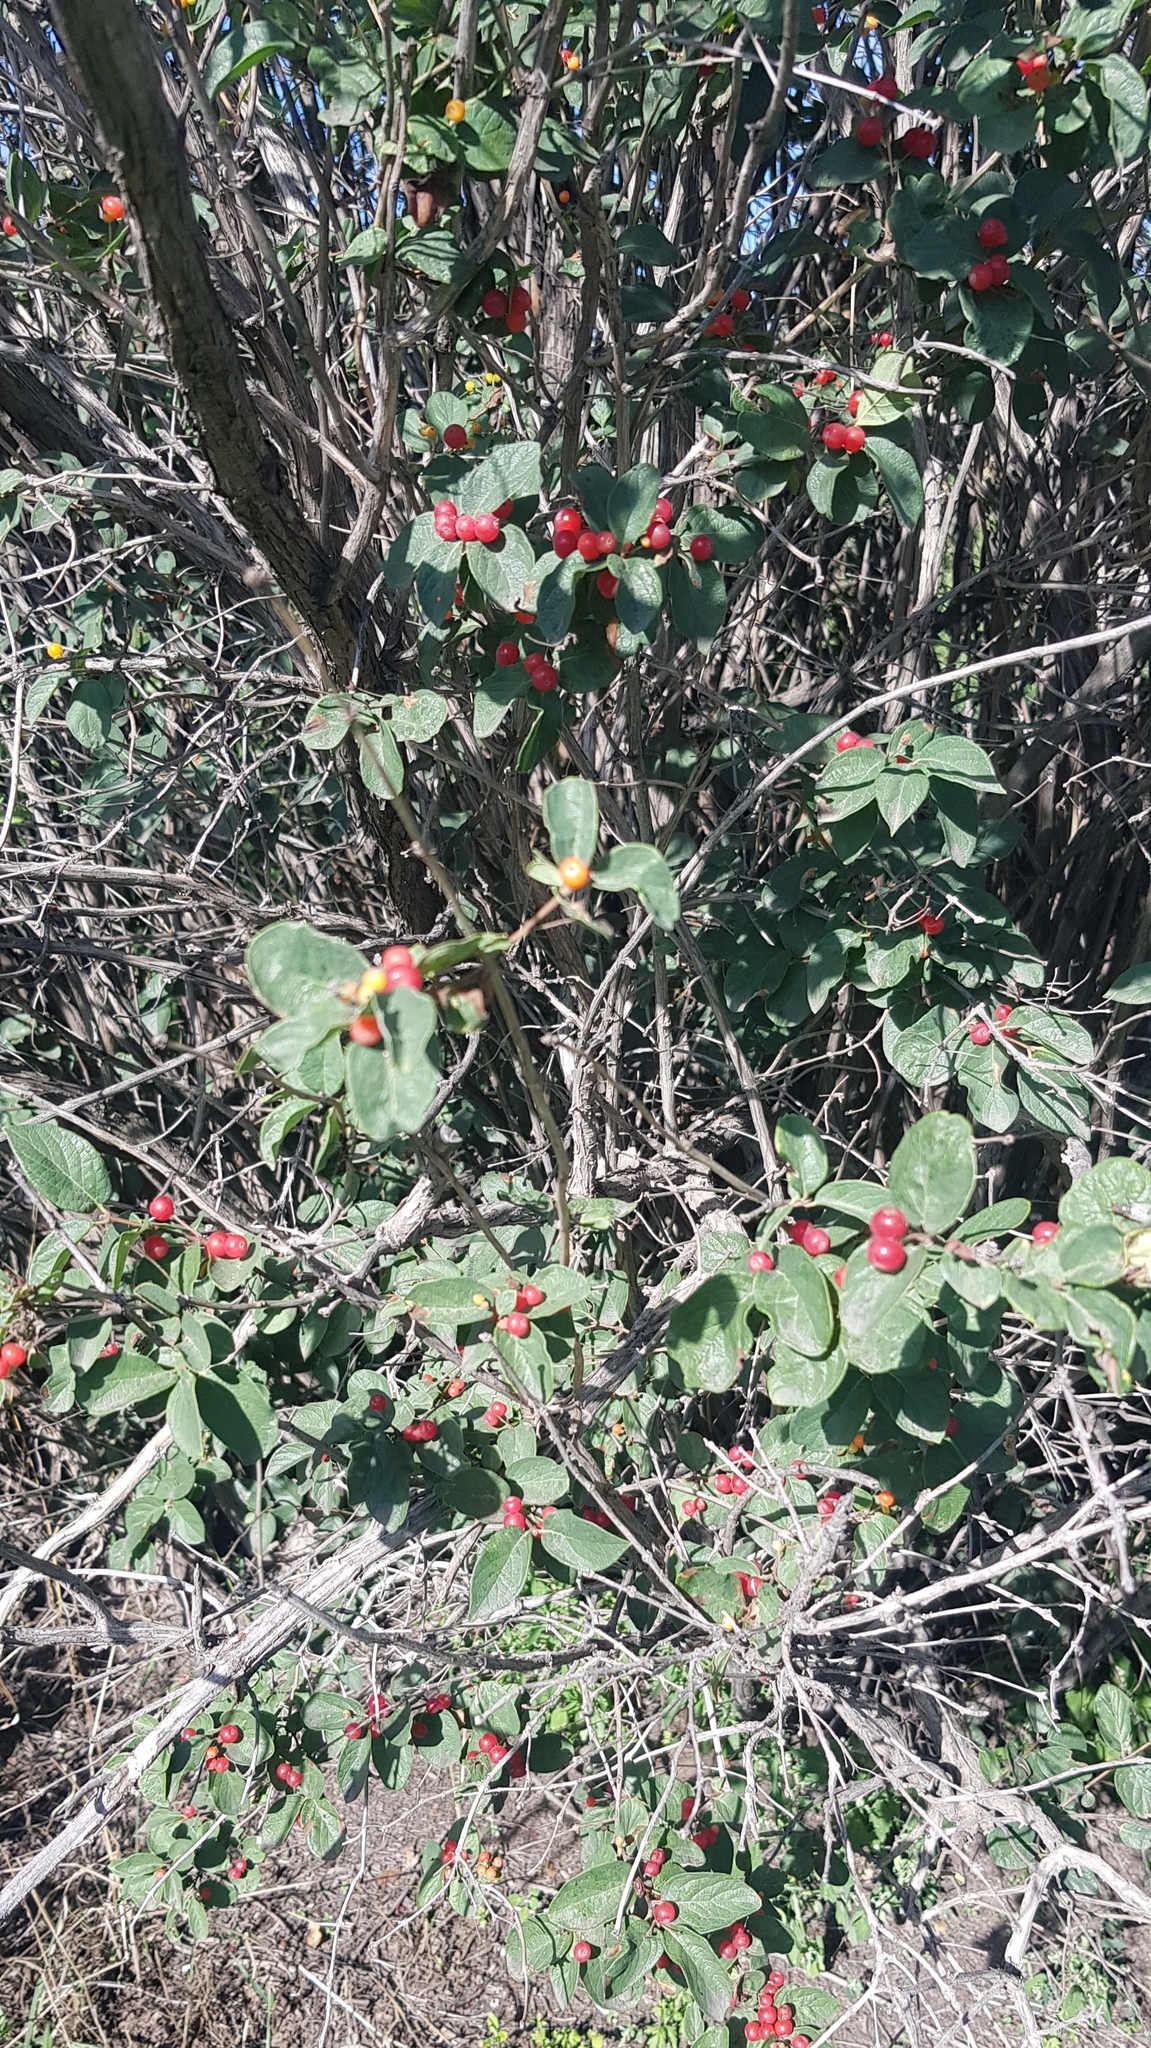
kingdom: Plantae
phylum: Tracheophyta
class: Magnoliopsida
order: Dipsacales
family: Caprifoliaceae
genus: Lonicera
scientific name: Lonicera tatarica
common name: Tatarian honeysuckle
